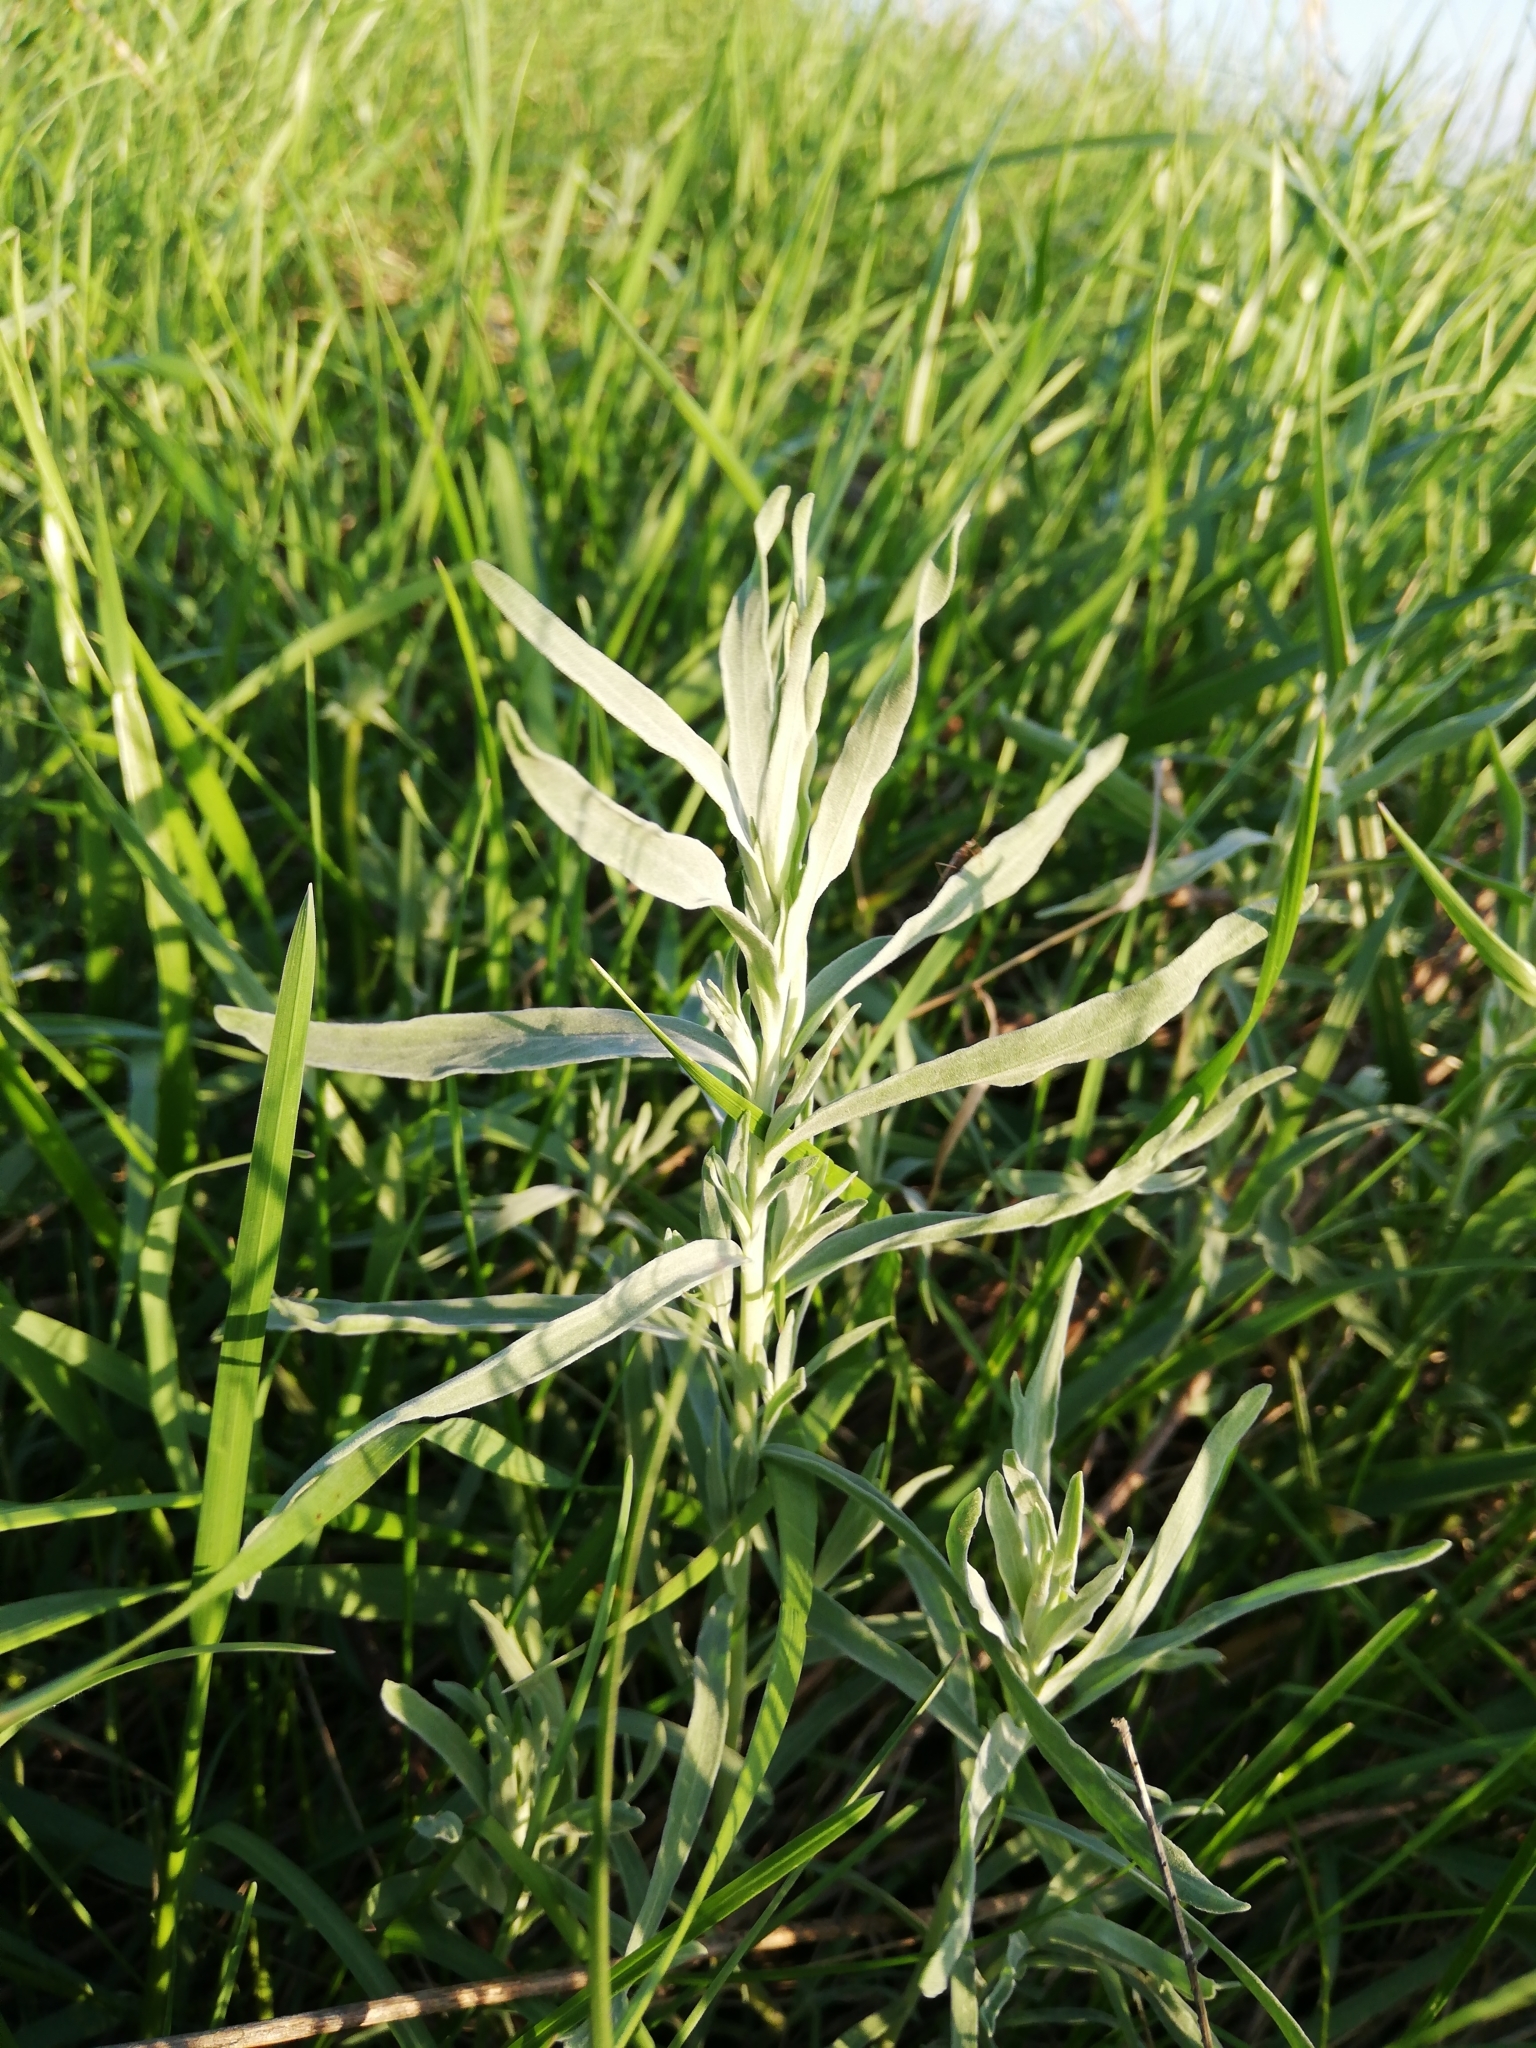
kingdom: Plantae
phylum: Tracheophyta
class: Magnoliopsida
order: Asterales
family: Asteraceae
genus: Artemisia
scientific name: Artemisia glauca
